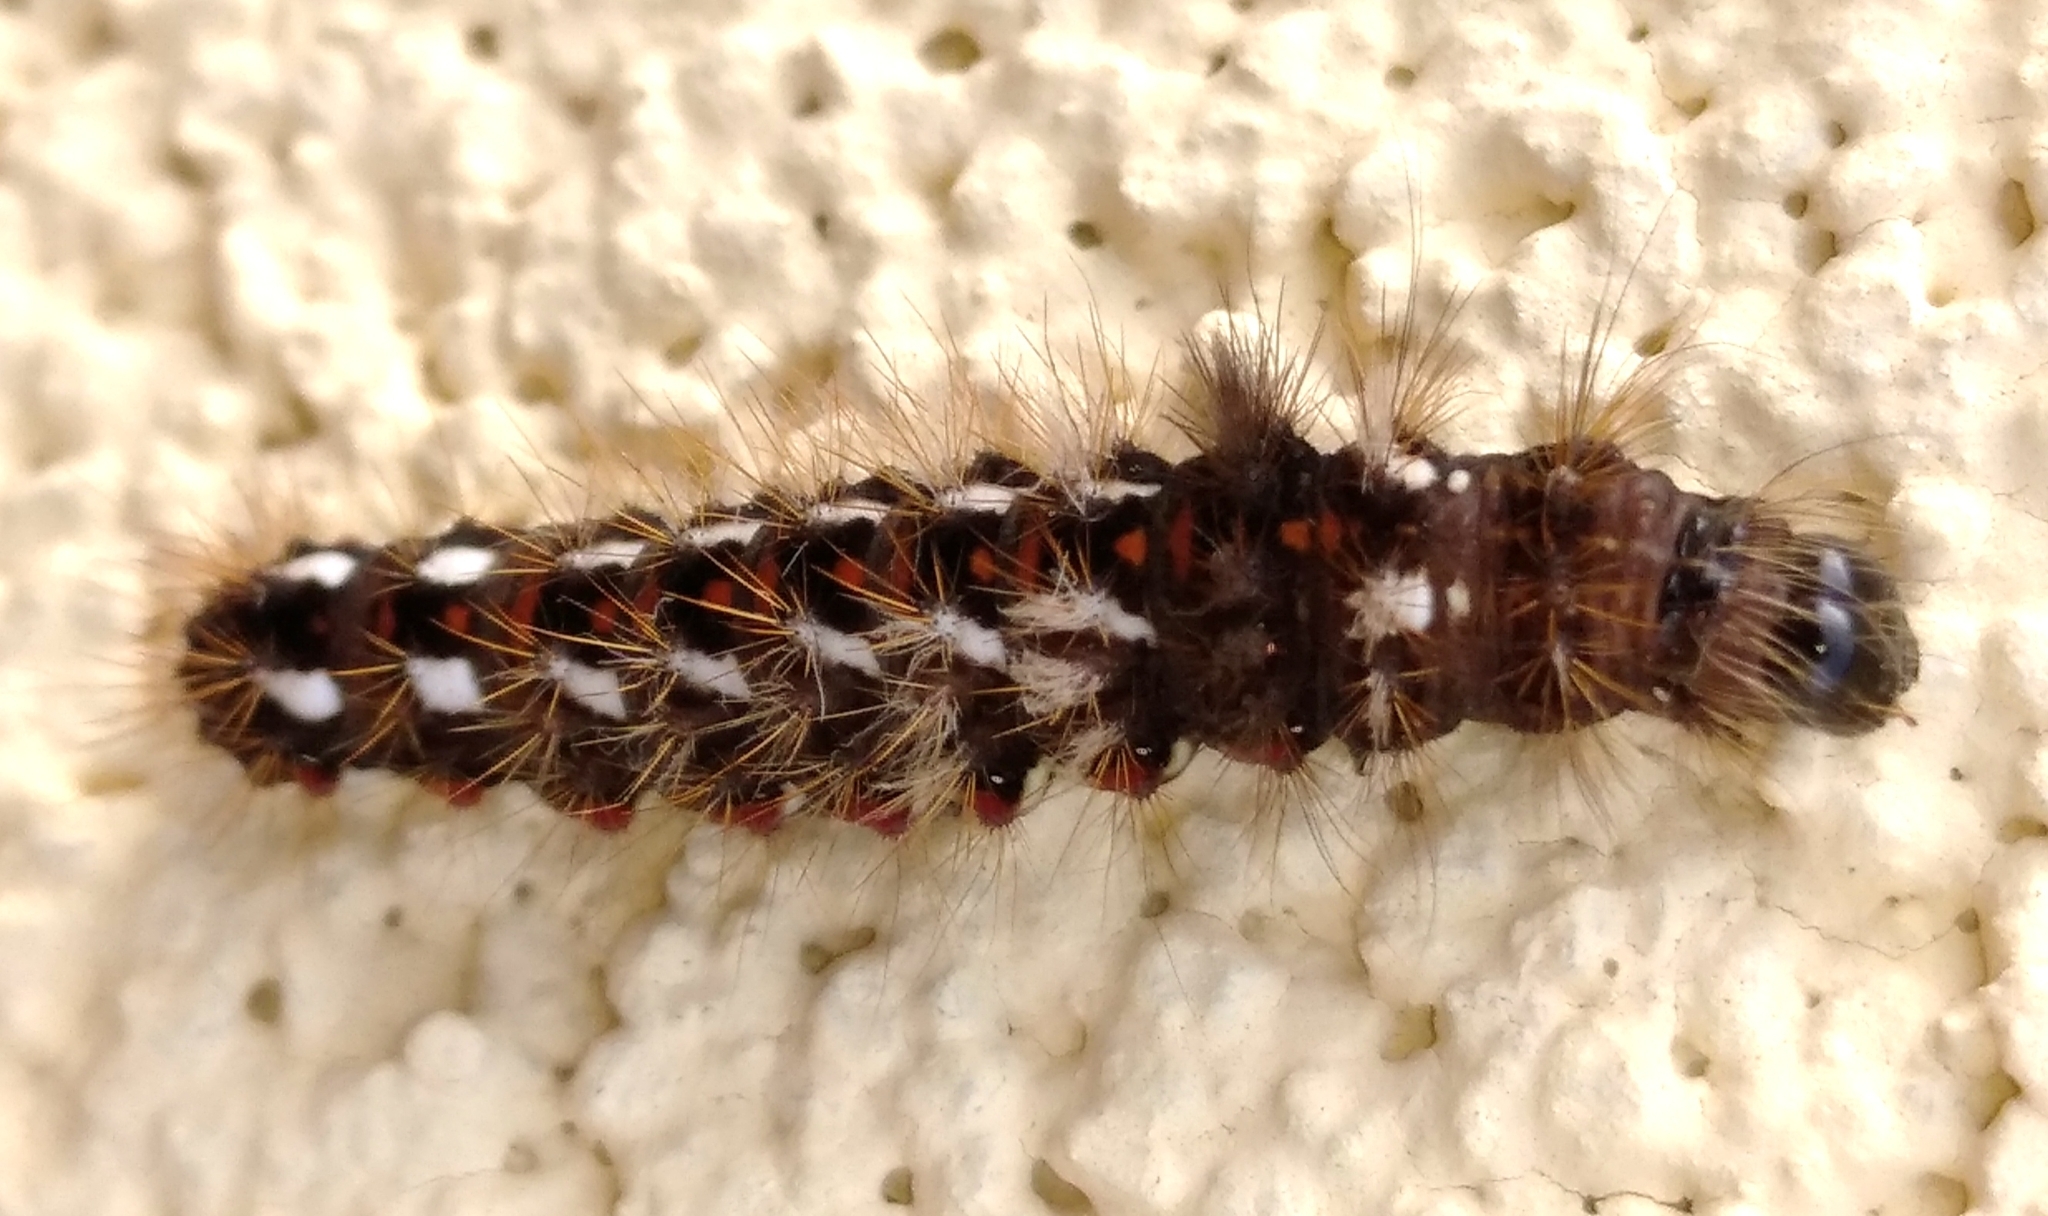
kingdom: Animalia
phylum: Arthropoda
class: Insecta
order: Lepidoptera
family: Noctuidae
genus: Acronicta
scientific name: Acronicta rumicis
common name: Knot grass
